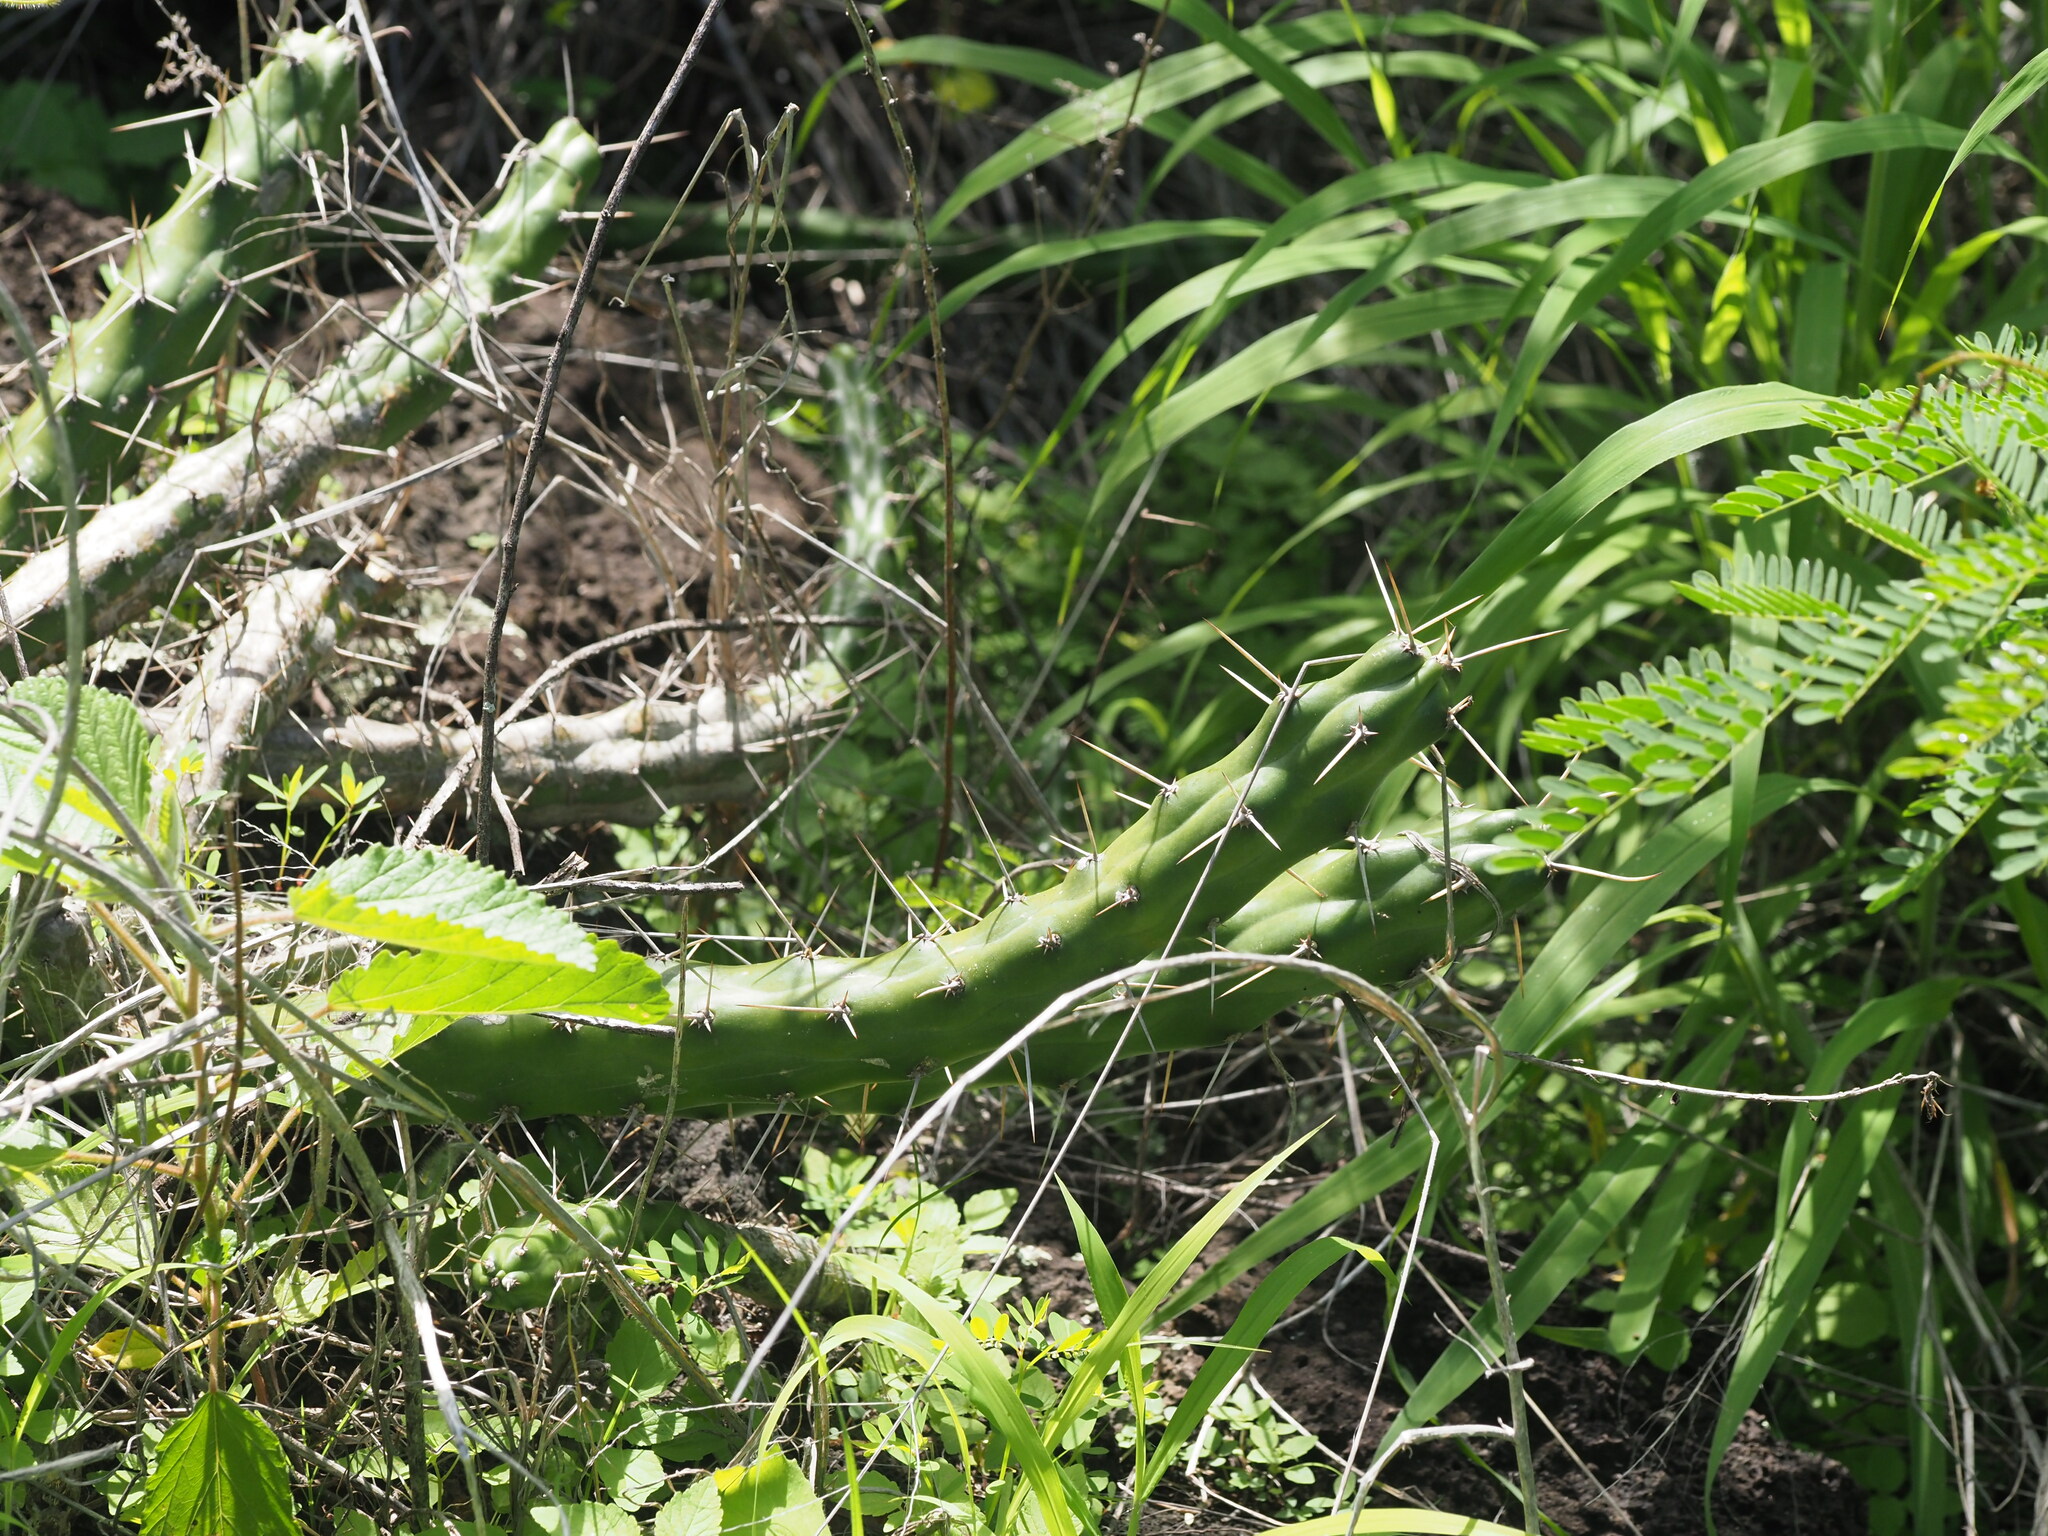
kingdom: Plantae
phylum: Tracheophyta
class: Magnoliopsida
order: Caryophyllales
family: Cactaceae
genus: Harrisia
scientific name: Harrisia martinii
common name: Moon cactus
